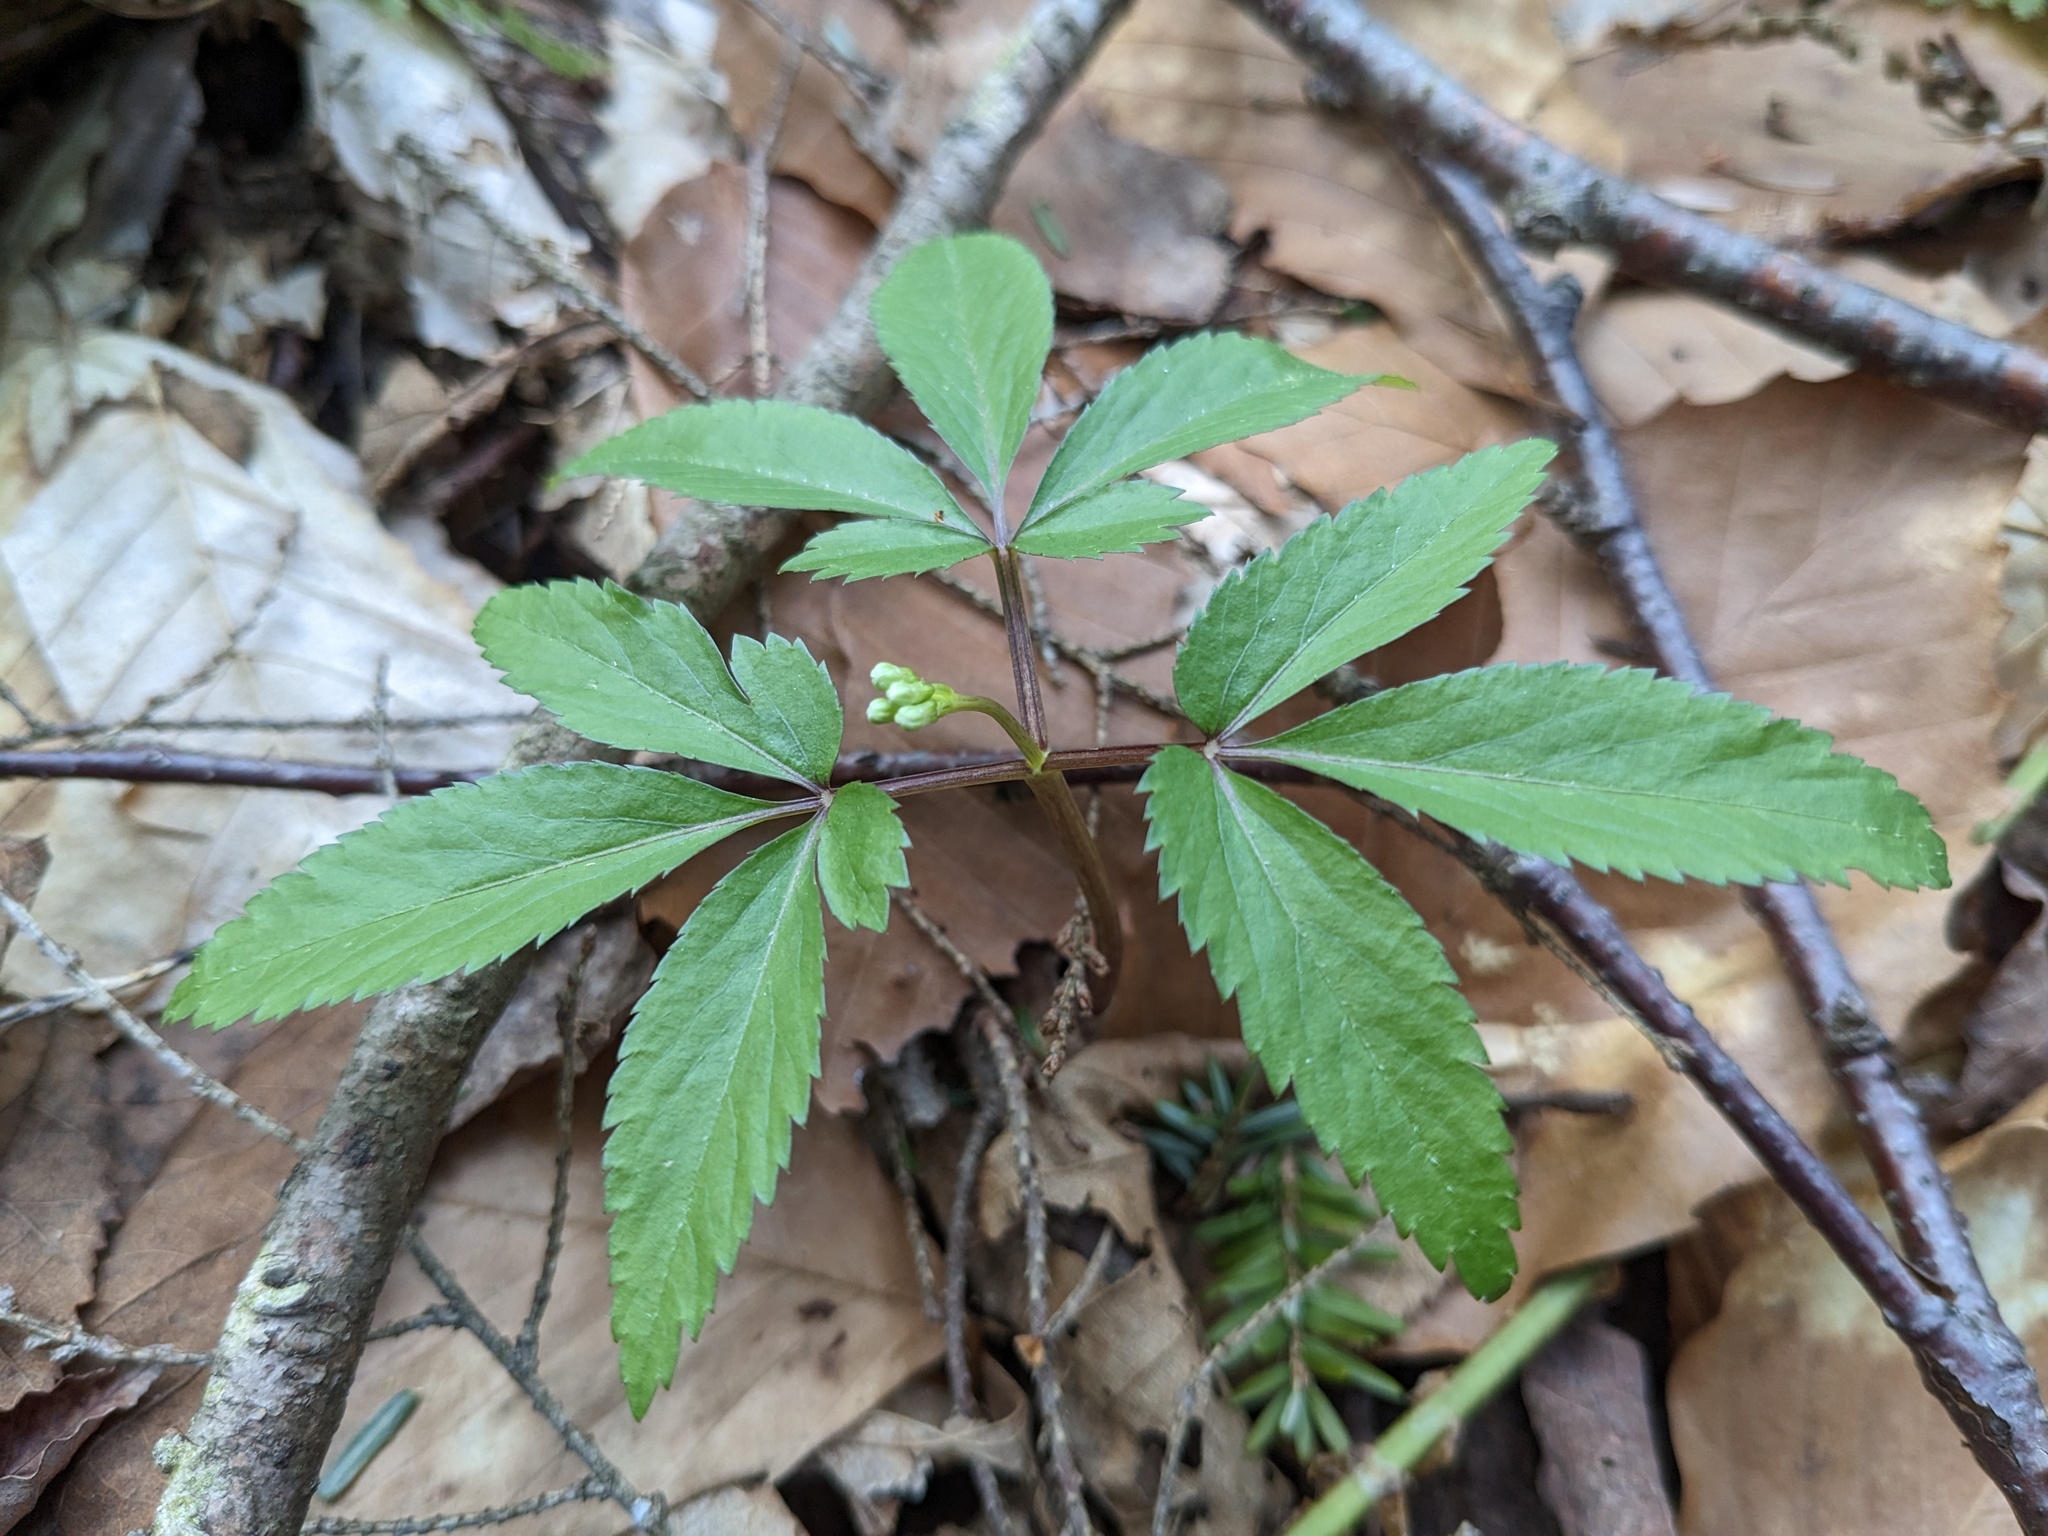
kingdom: Plantae
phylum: Tracheophyta
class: Magnoliopsida
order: Apiales
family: Araliaceae
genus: Panax
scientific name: Panax trifolius
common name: Dwarf ginseng
